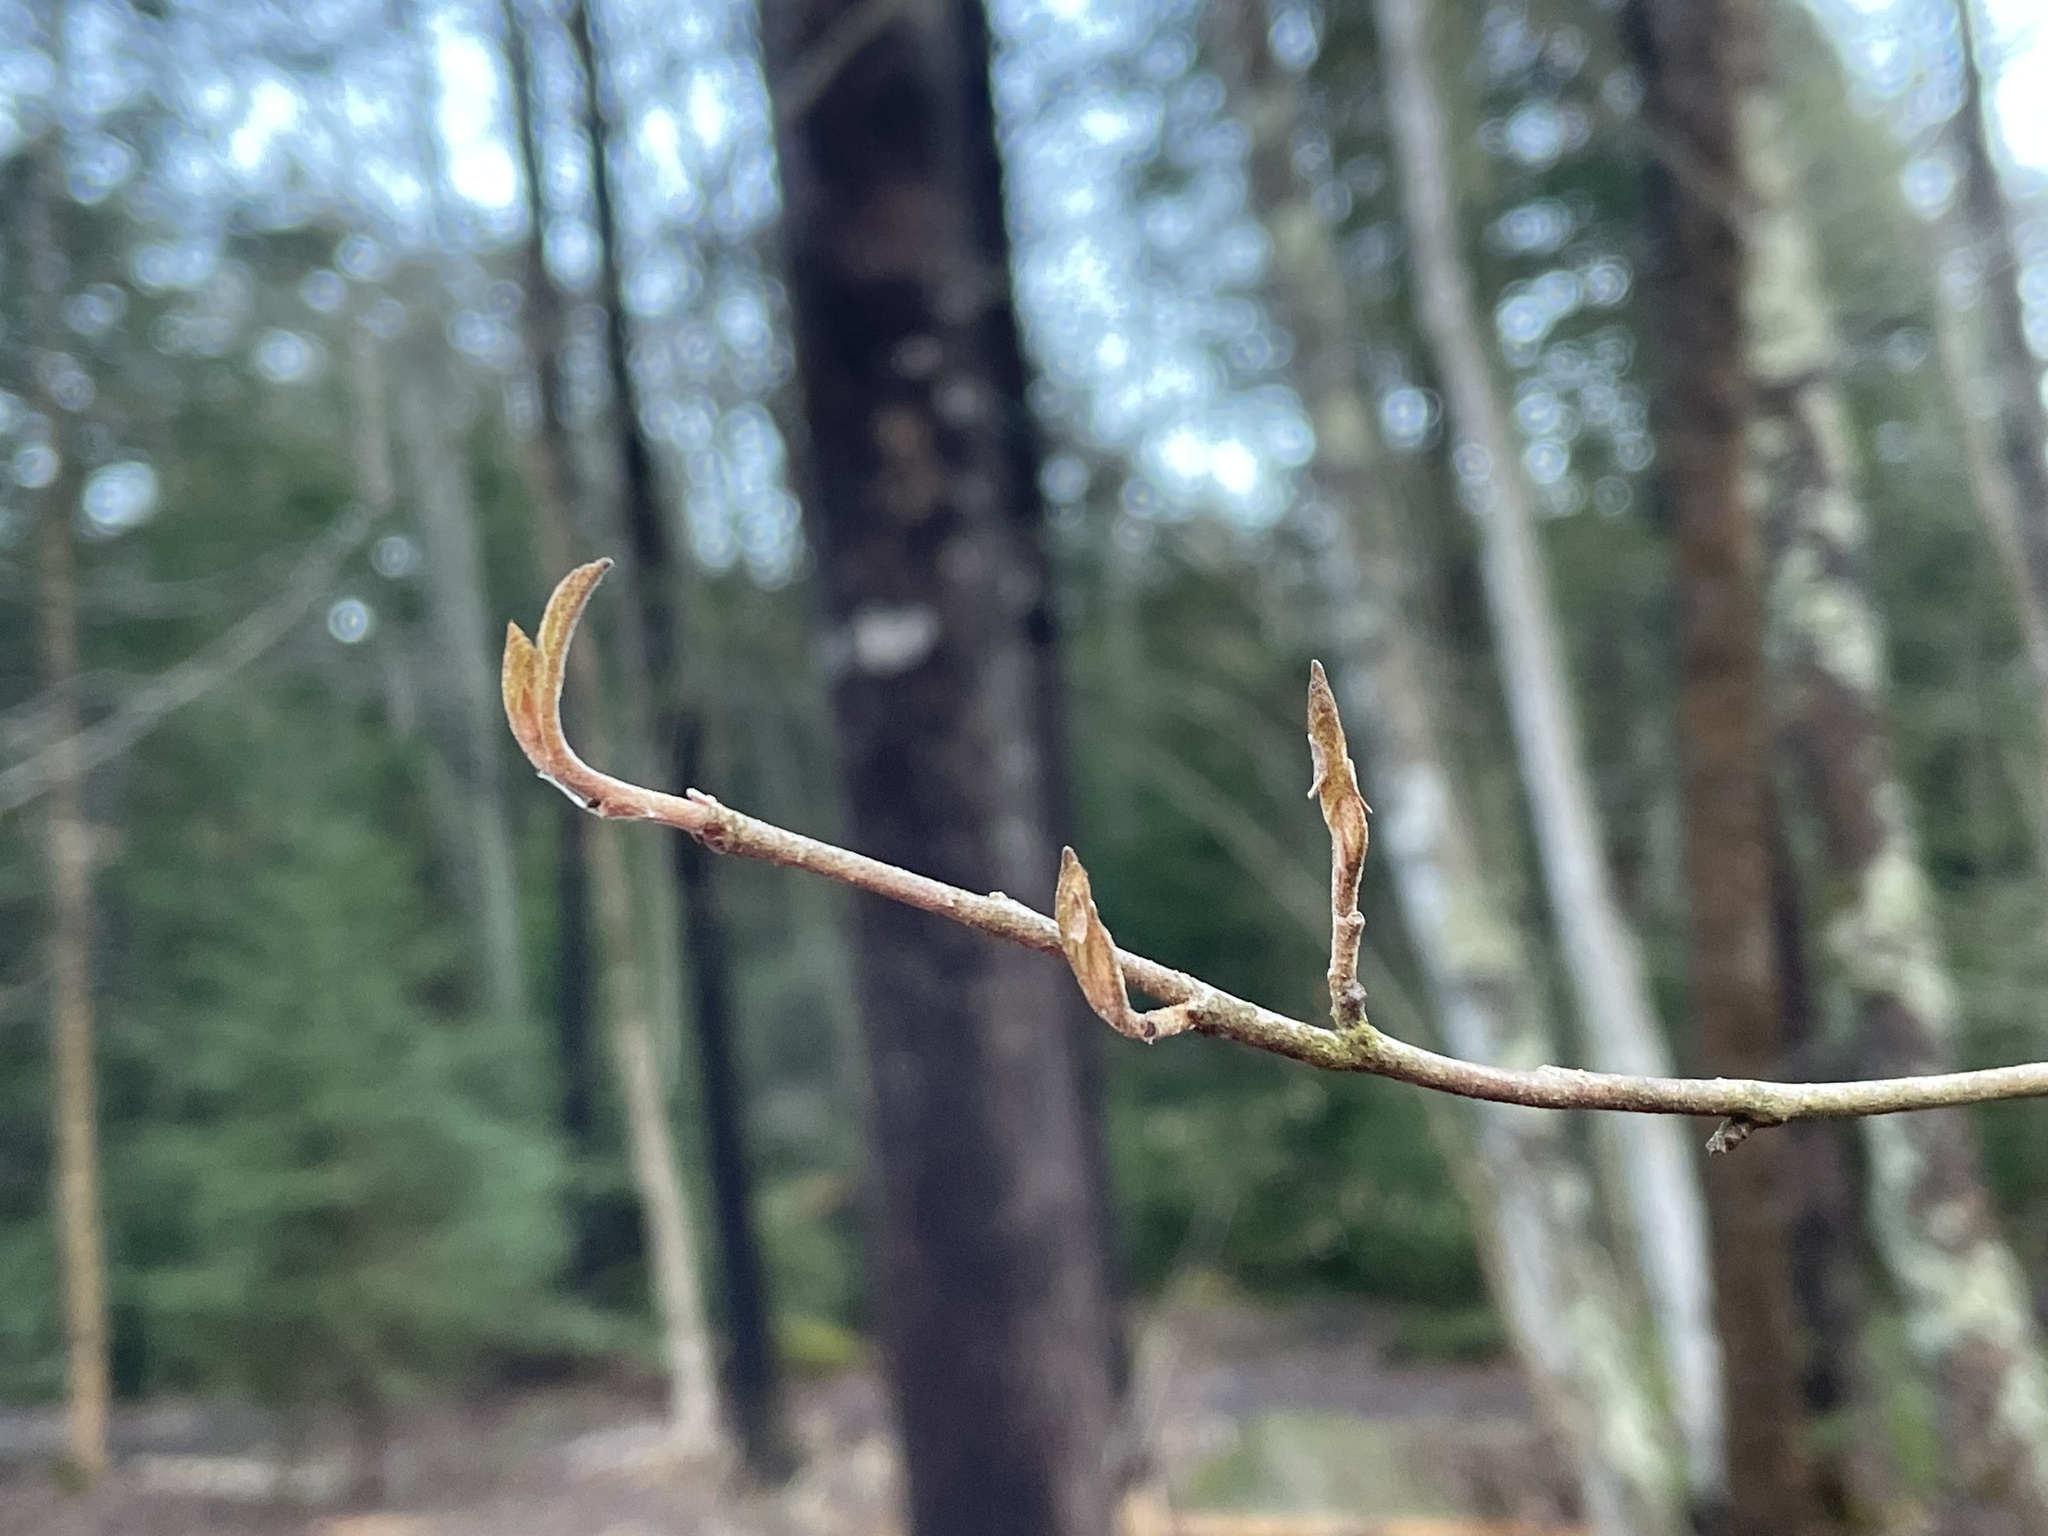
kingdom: Plantae
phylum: Tracheophyta
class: Magnoliopsida
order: Saxifragales
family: Hamamelidaceae
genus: Hamamelis
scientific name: Hamamelis virginiana
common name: Witch-hazel
